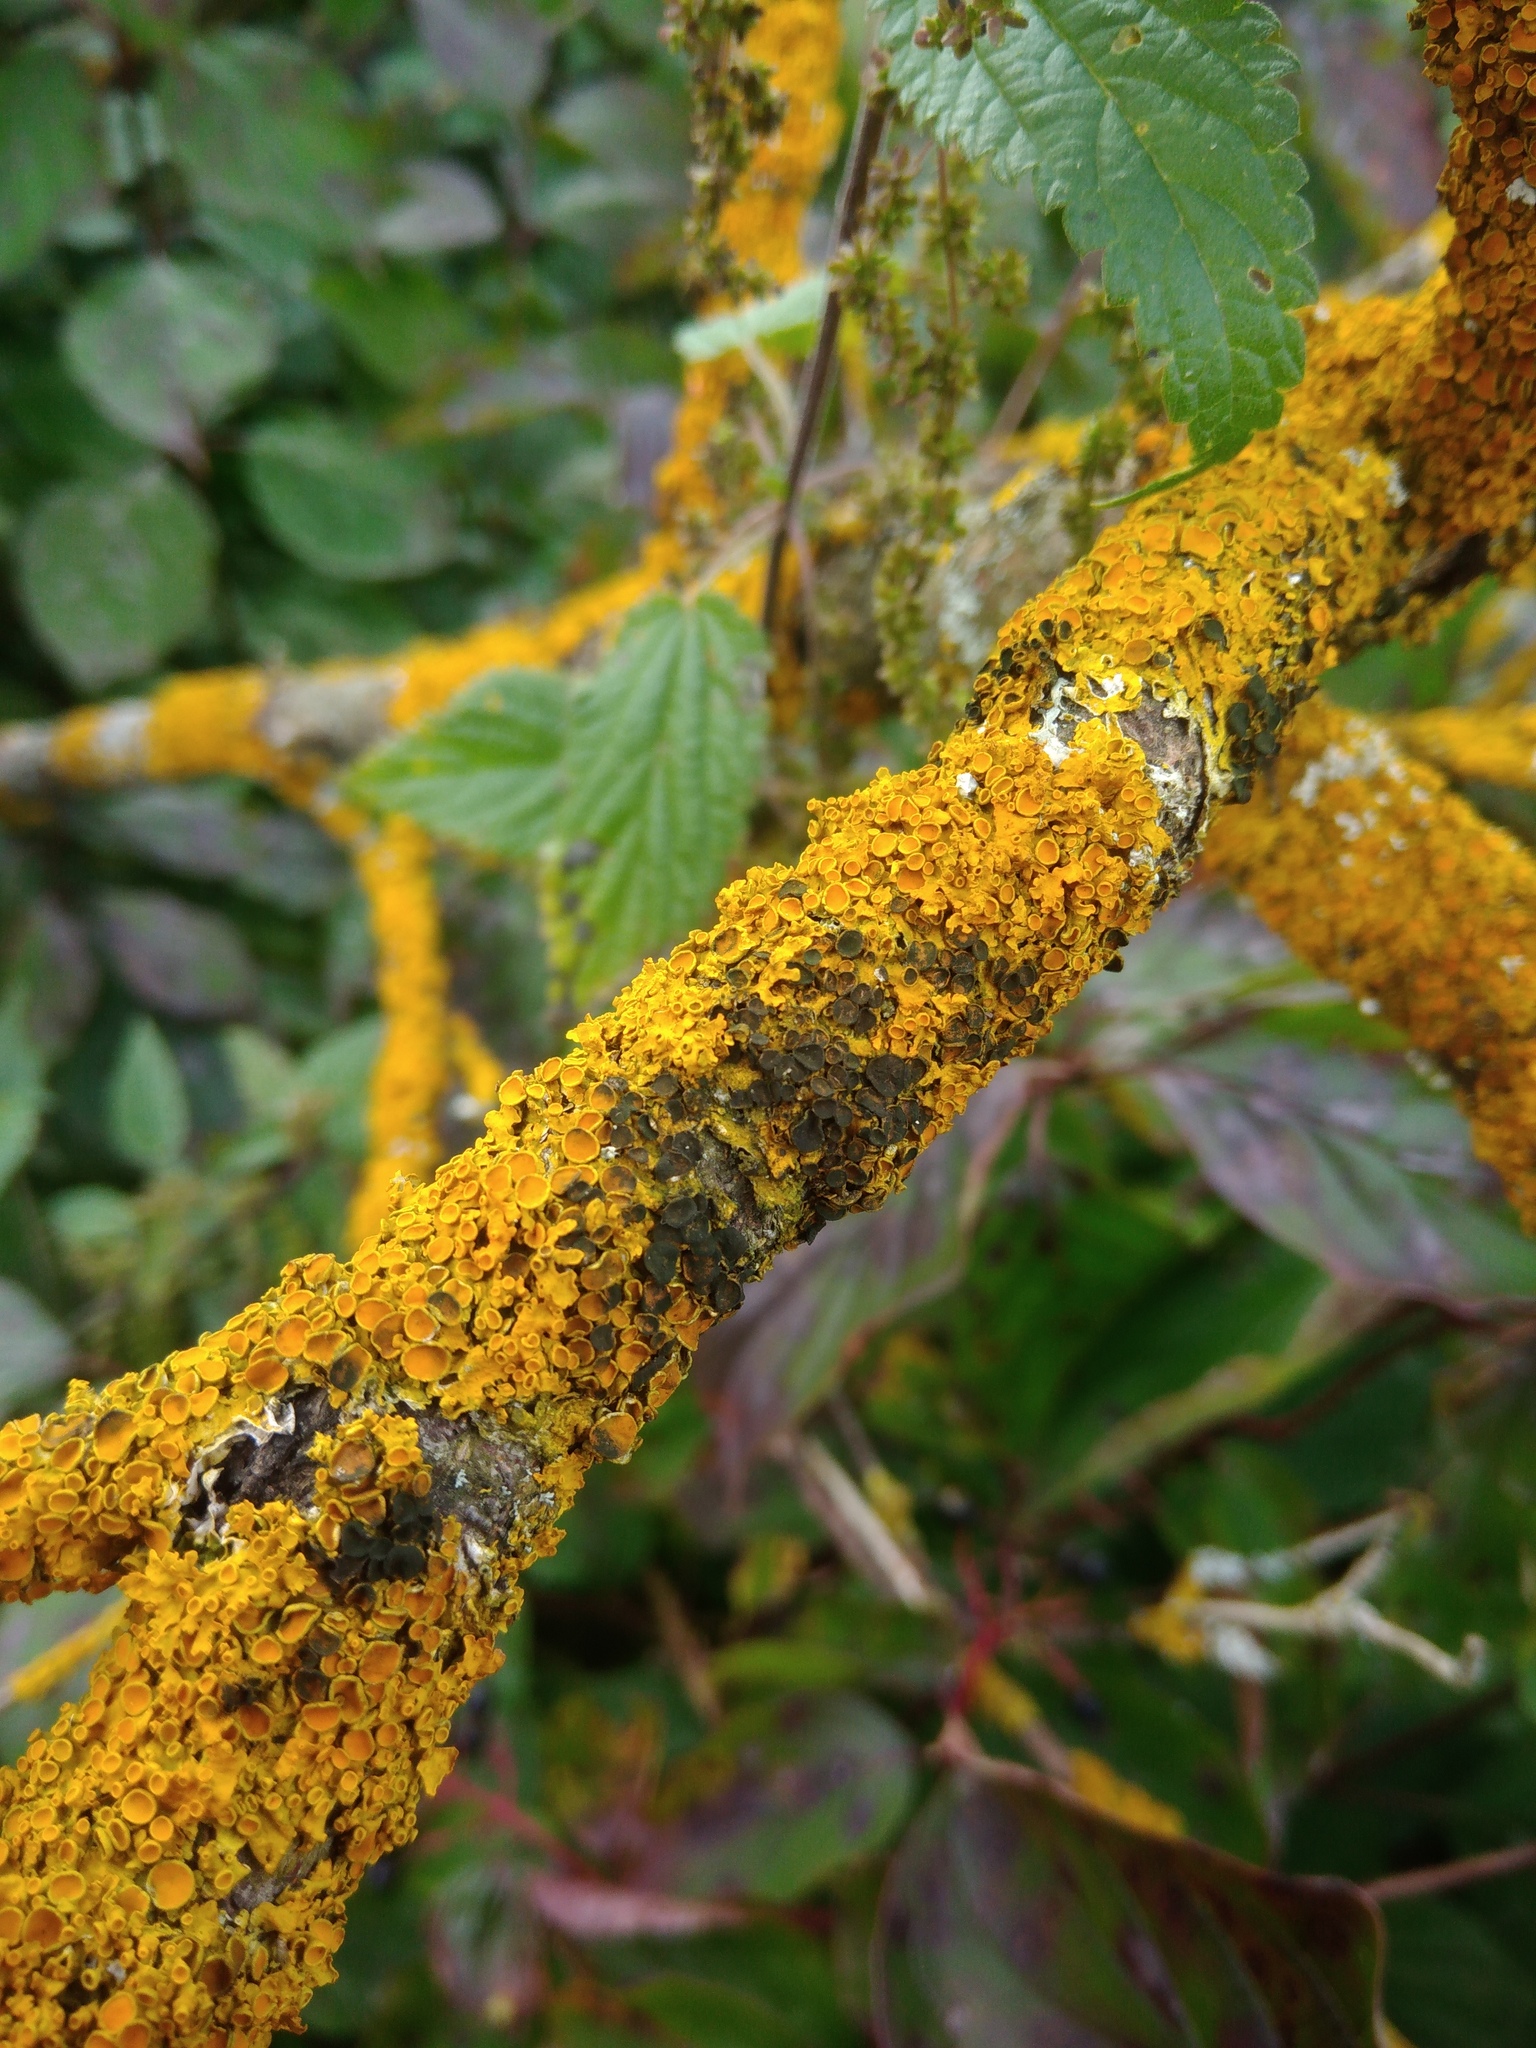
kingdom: Fungi
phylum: Ascomycota
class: Dothideomycetes
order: Mycosphaerellales
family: Teratosphaeriaceae
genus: Xanthoriicola
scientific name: Xanthoriicola physciae
